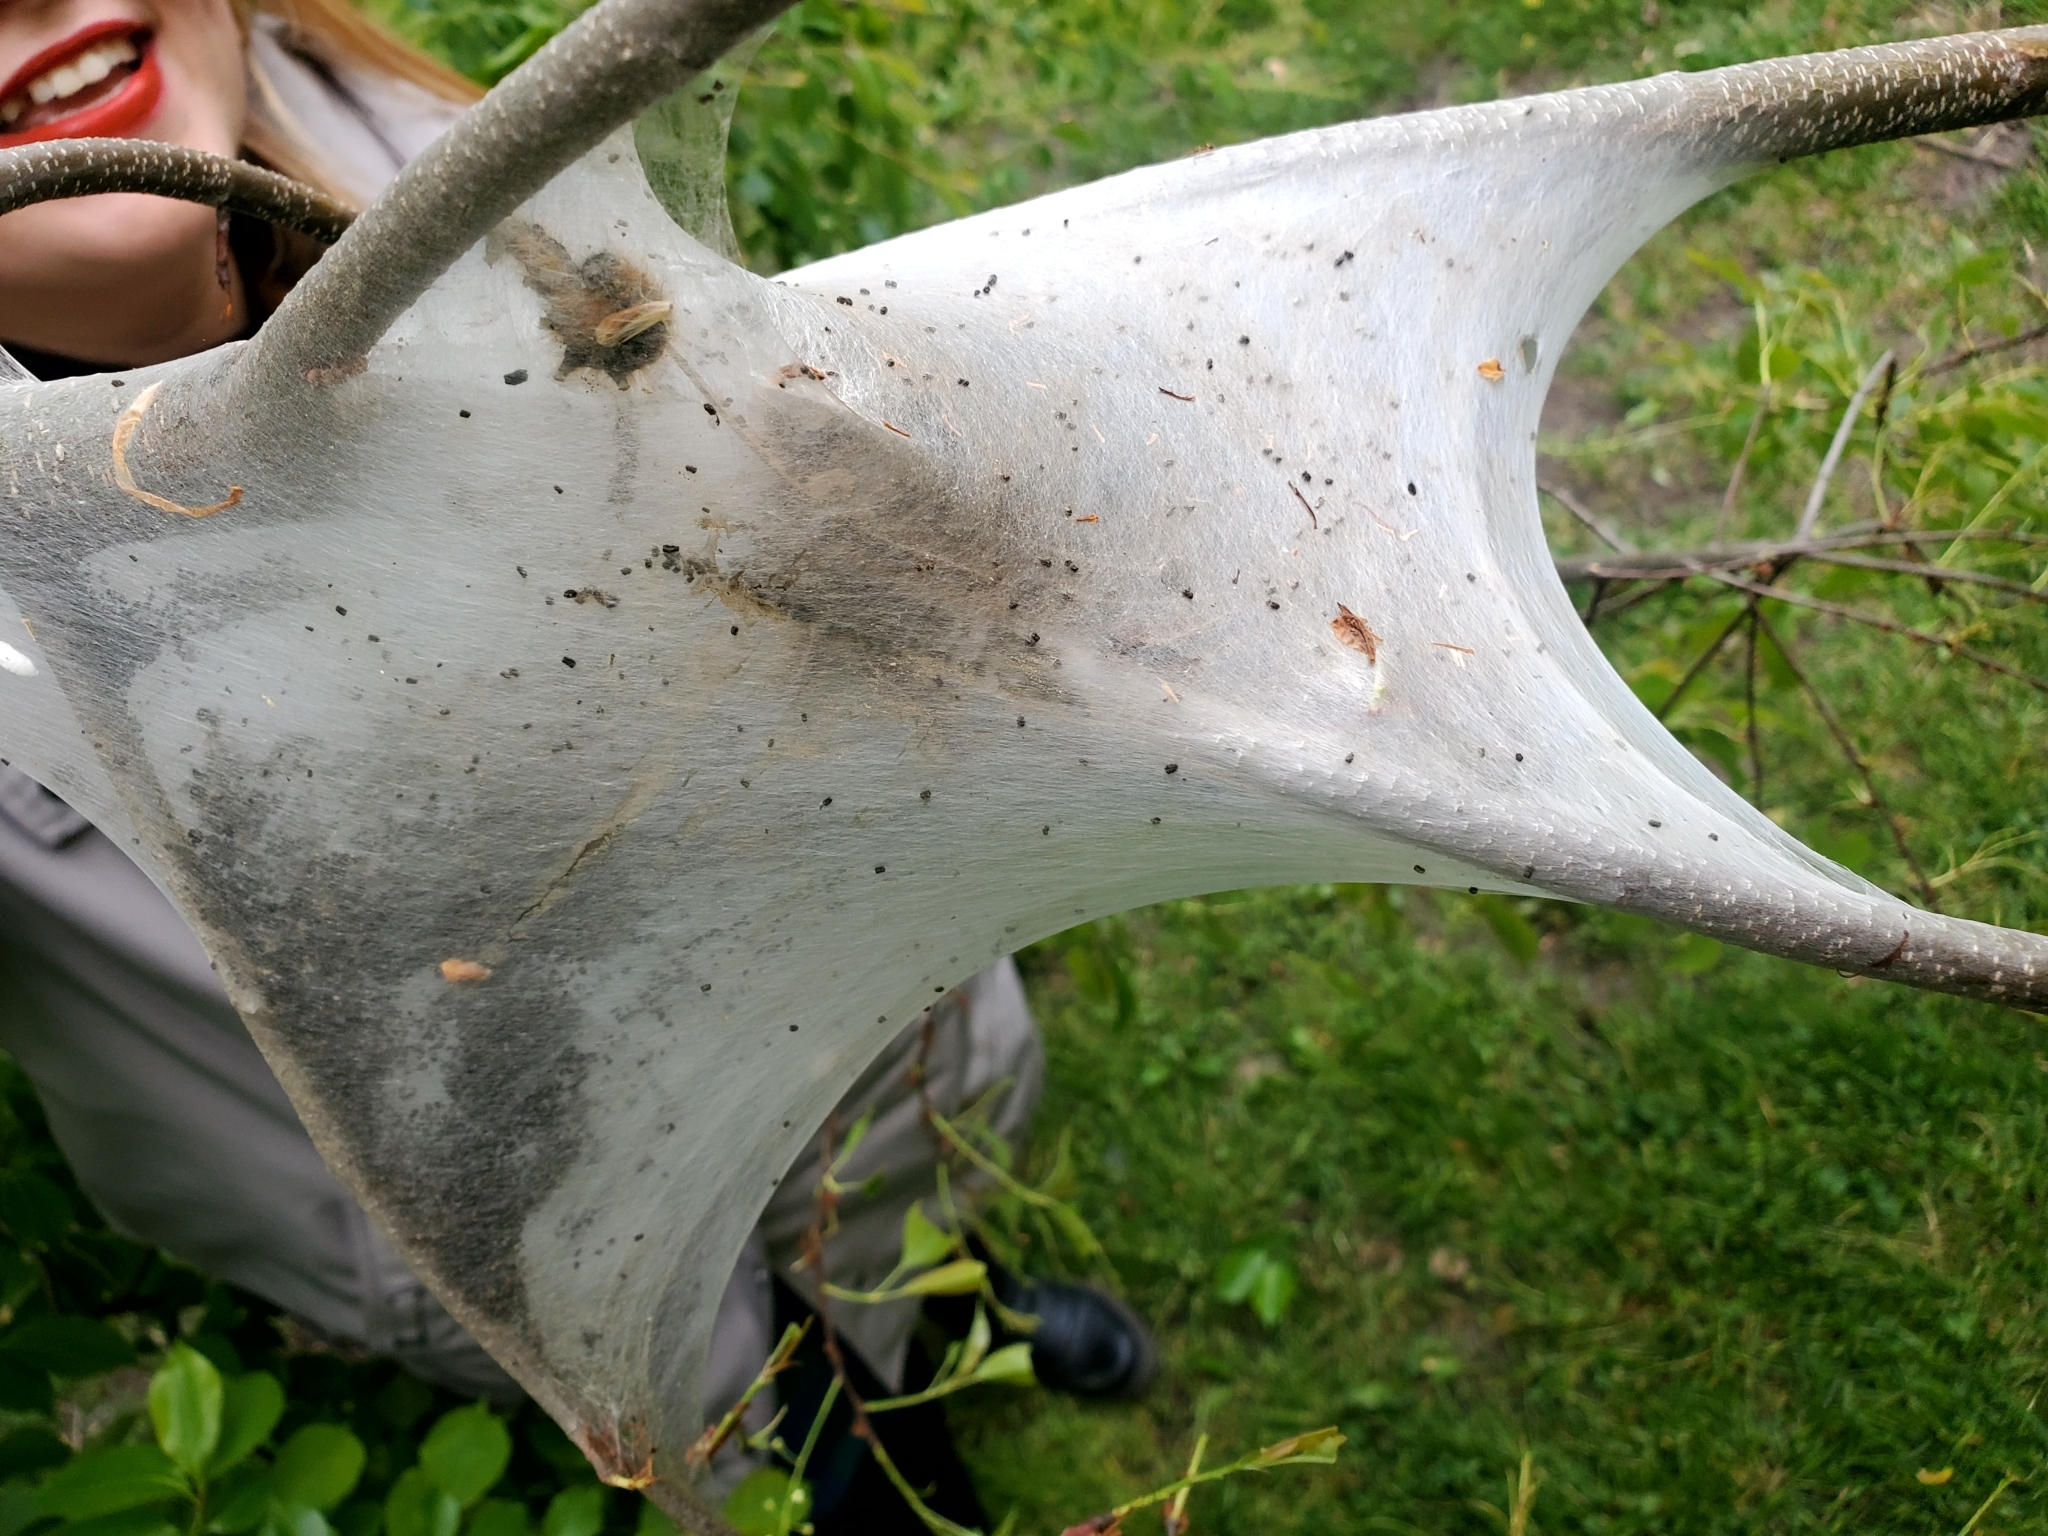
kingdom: Animalia
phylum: Arthropoda
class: Insecta
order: Lepidoptera
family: Lasiocampidae
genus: Malacosoma
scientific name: Malacosoma americana
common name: Eastern tent caterpillar moth
